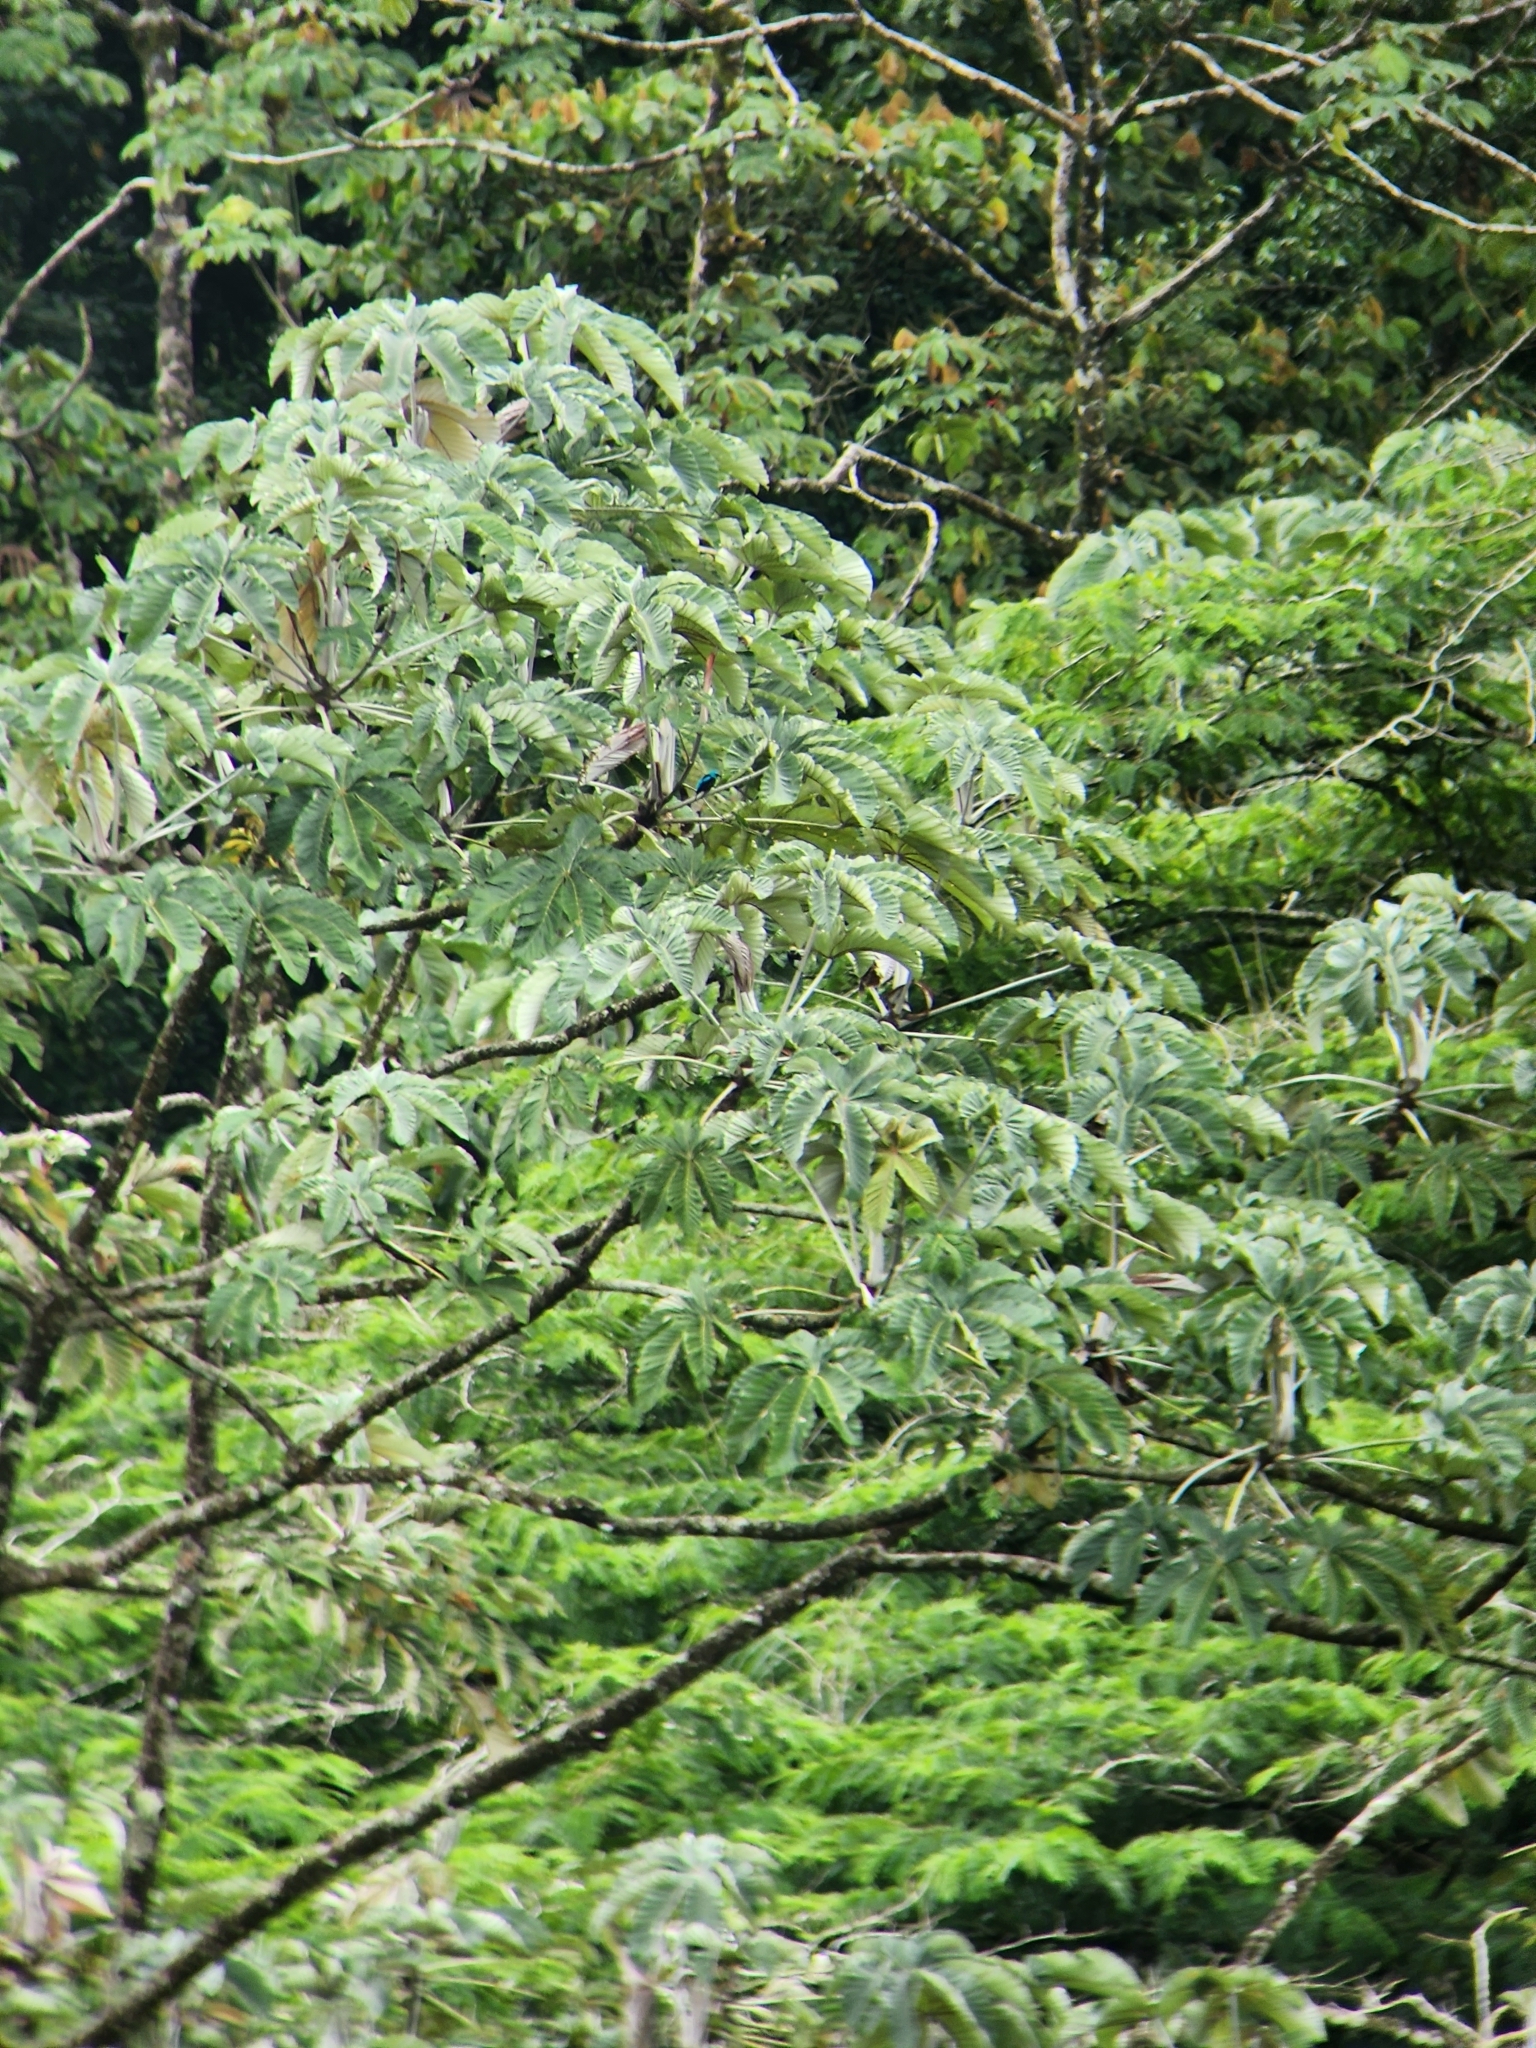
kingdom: Animalia
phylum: Chordata
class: Aves
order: Passeriformes
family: Thraupidae
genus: Dacnis
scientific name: Dacnis venusta
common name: Scarlet-thighed dacnis
